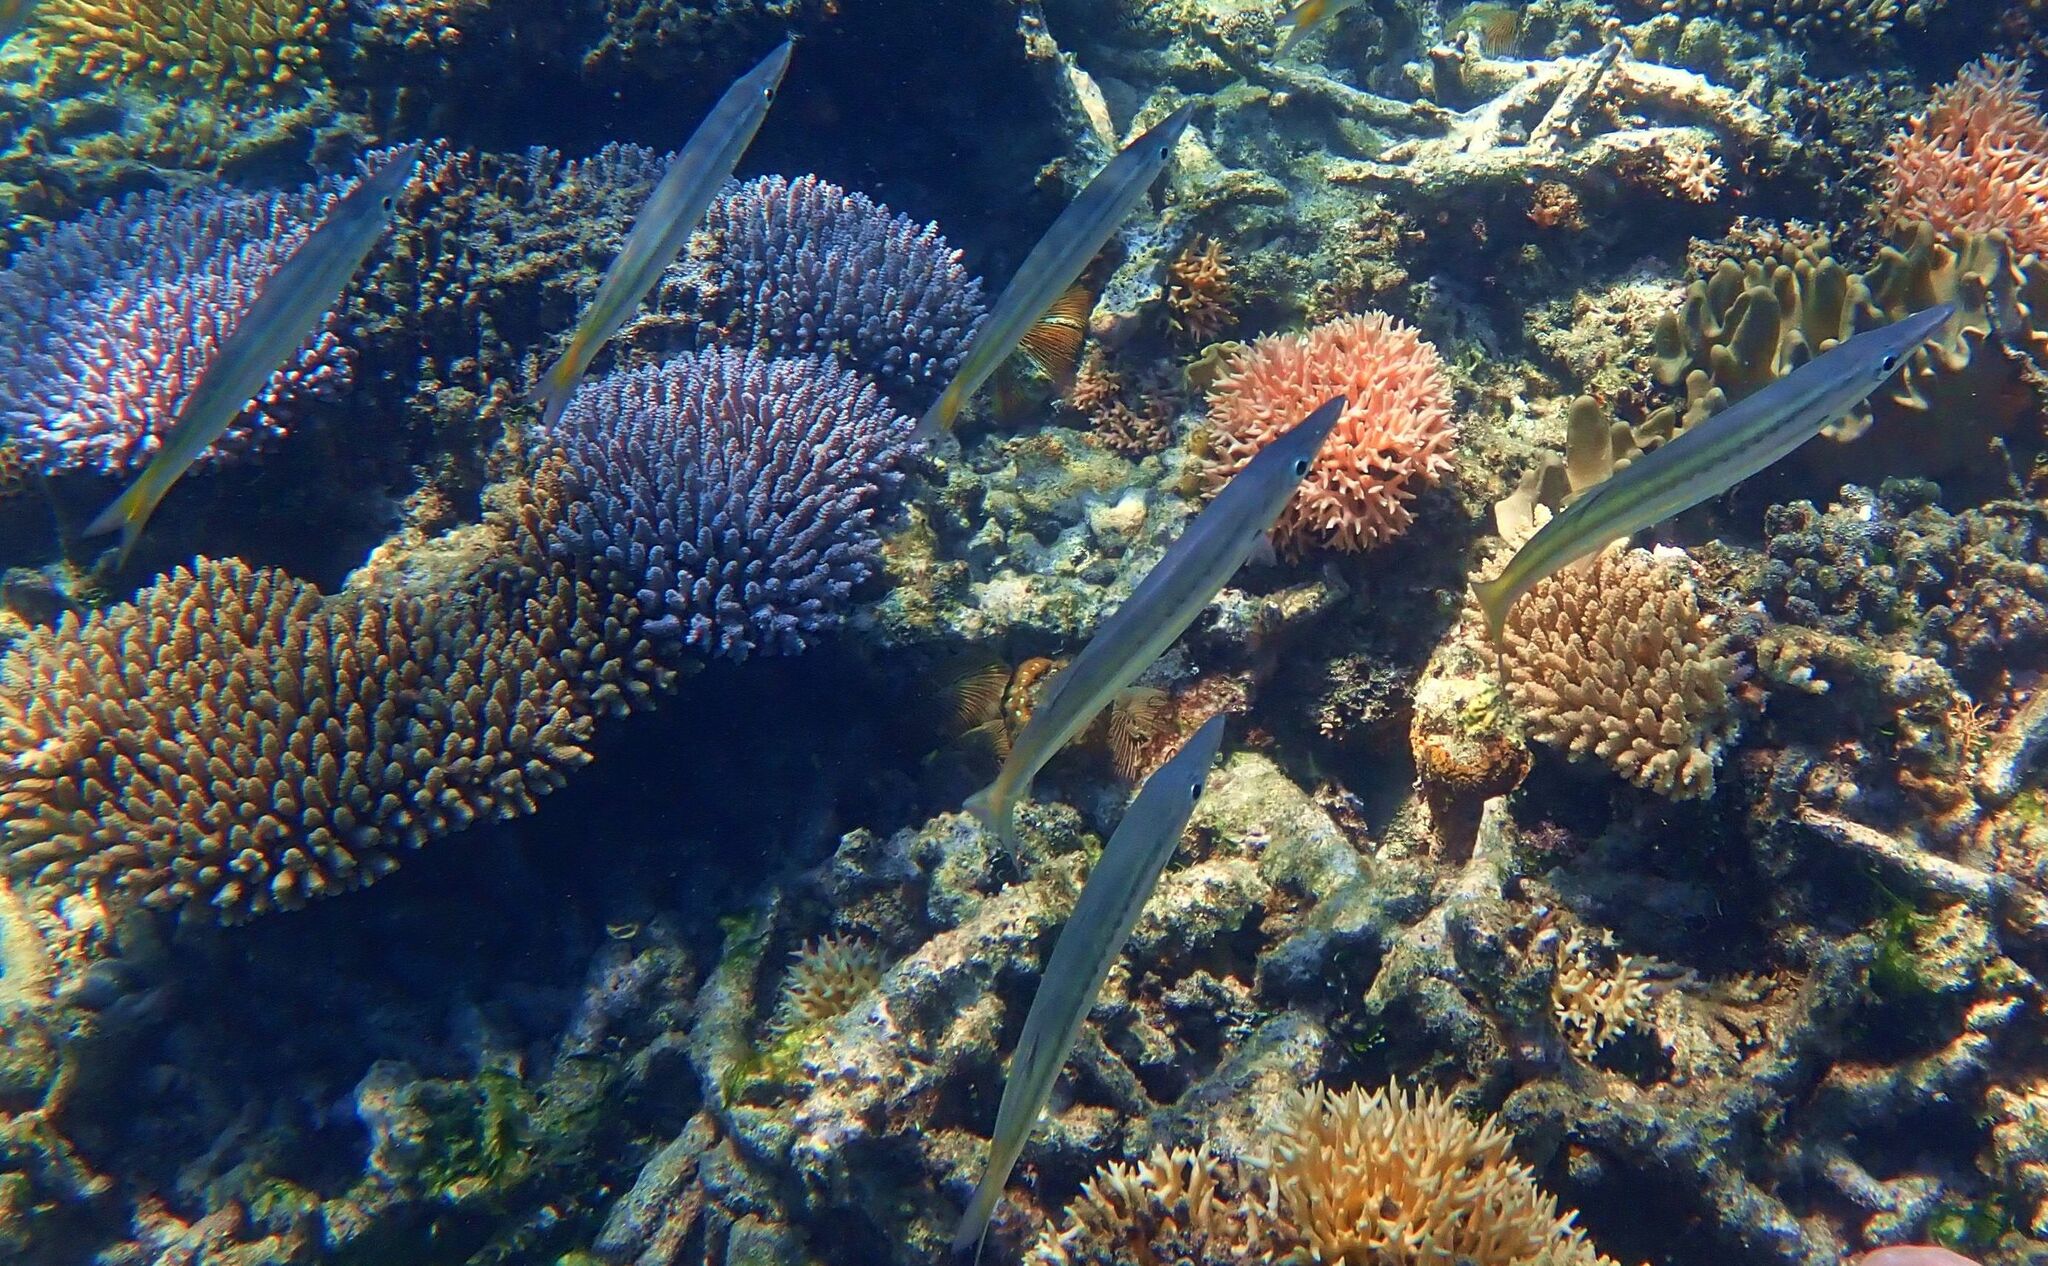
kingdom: Animalia
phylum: Chordata
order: Perciformes
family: Sphyraenidae
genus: Sphyraena
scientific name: Sphyraena obtusata
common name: Obtuse barracuda
